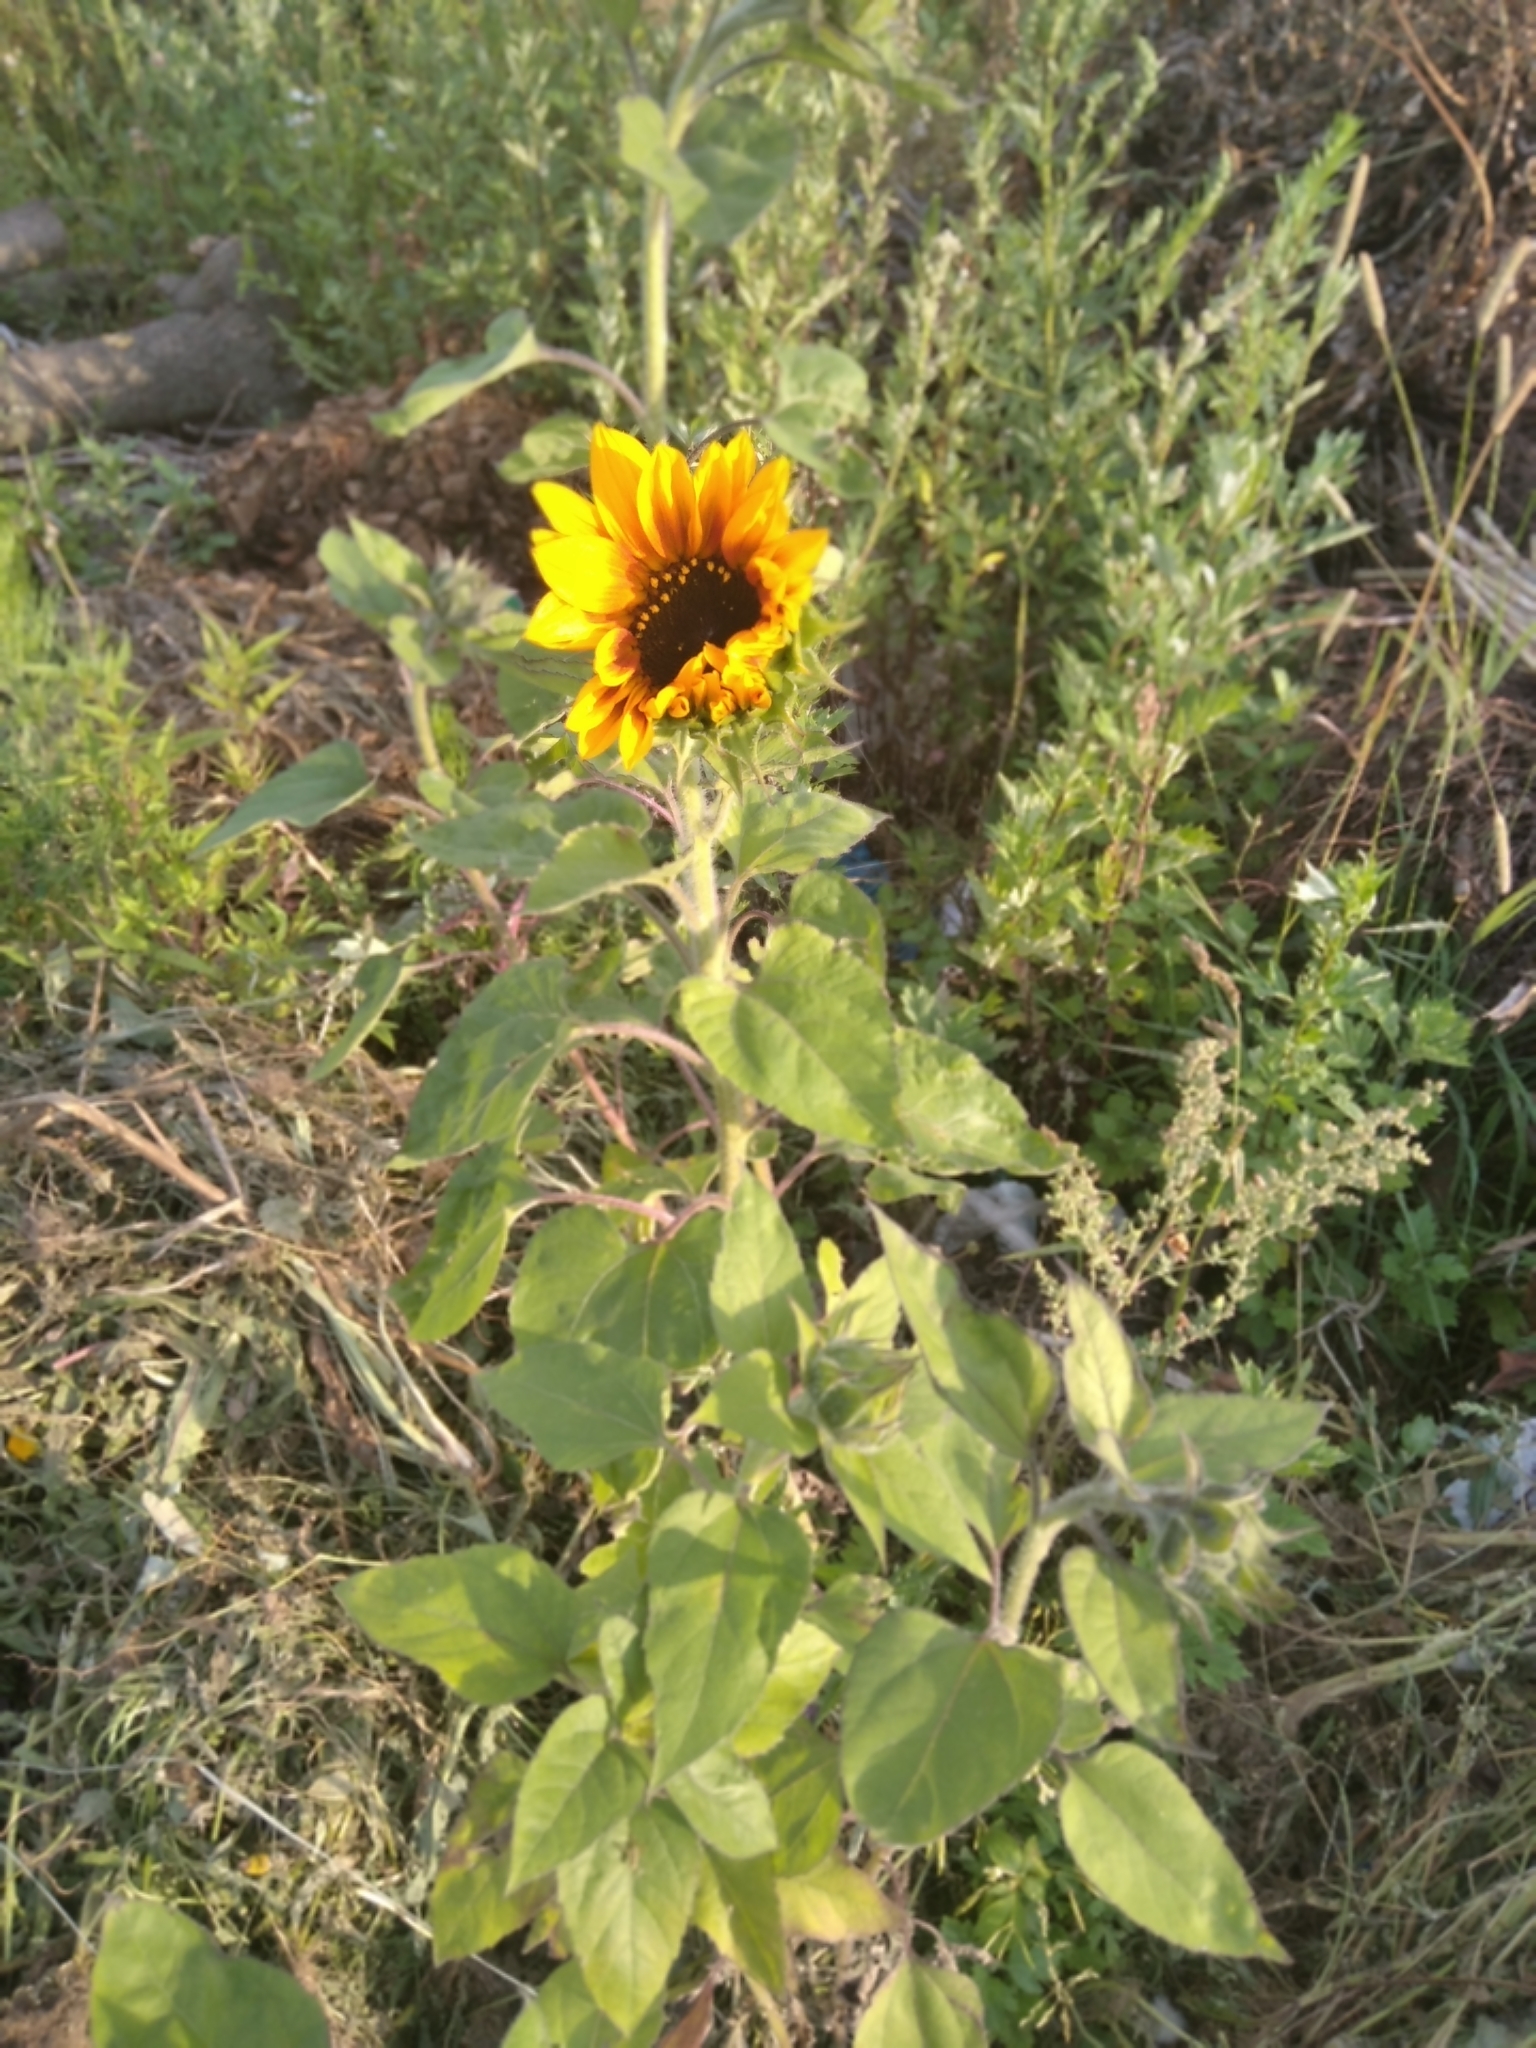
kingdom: Plantae
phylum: Tracheophyta
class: Magnoliopsida
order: Asterales
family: Asteraceae
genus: Helianthus
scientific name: Helianthus annuus
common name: Sunflower
